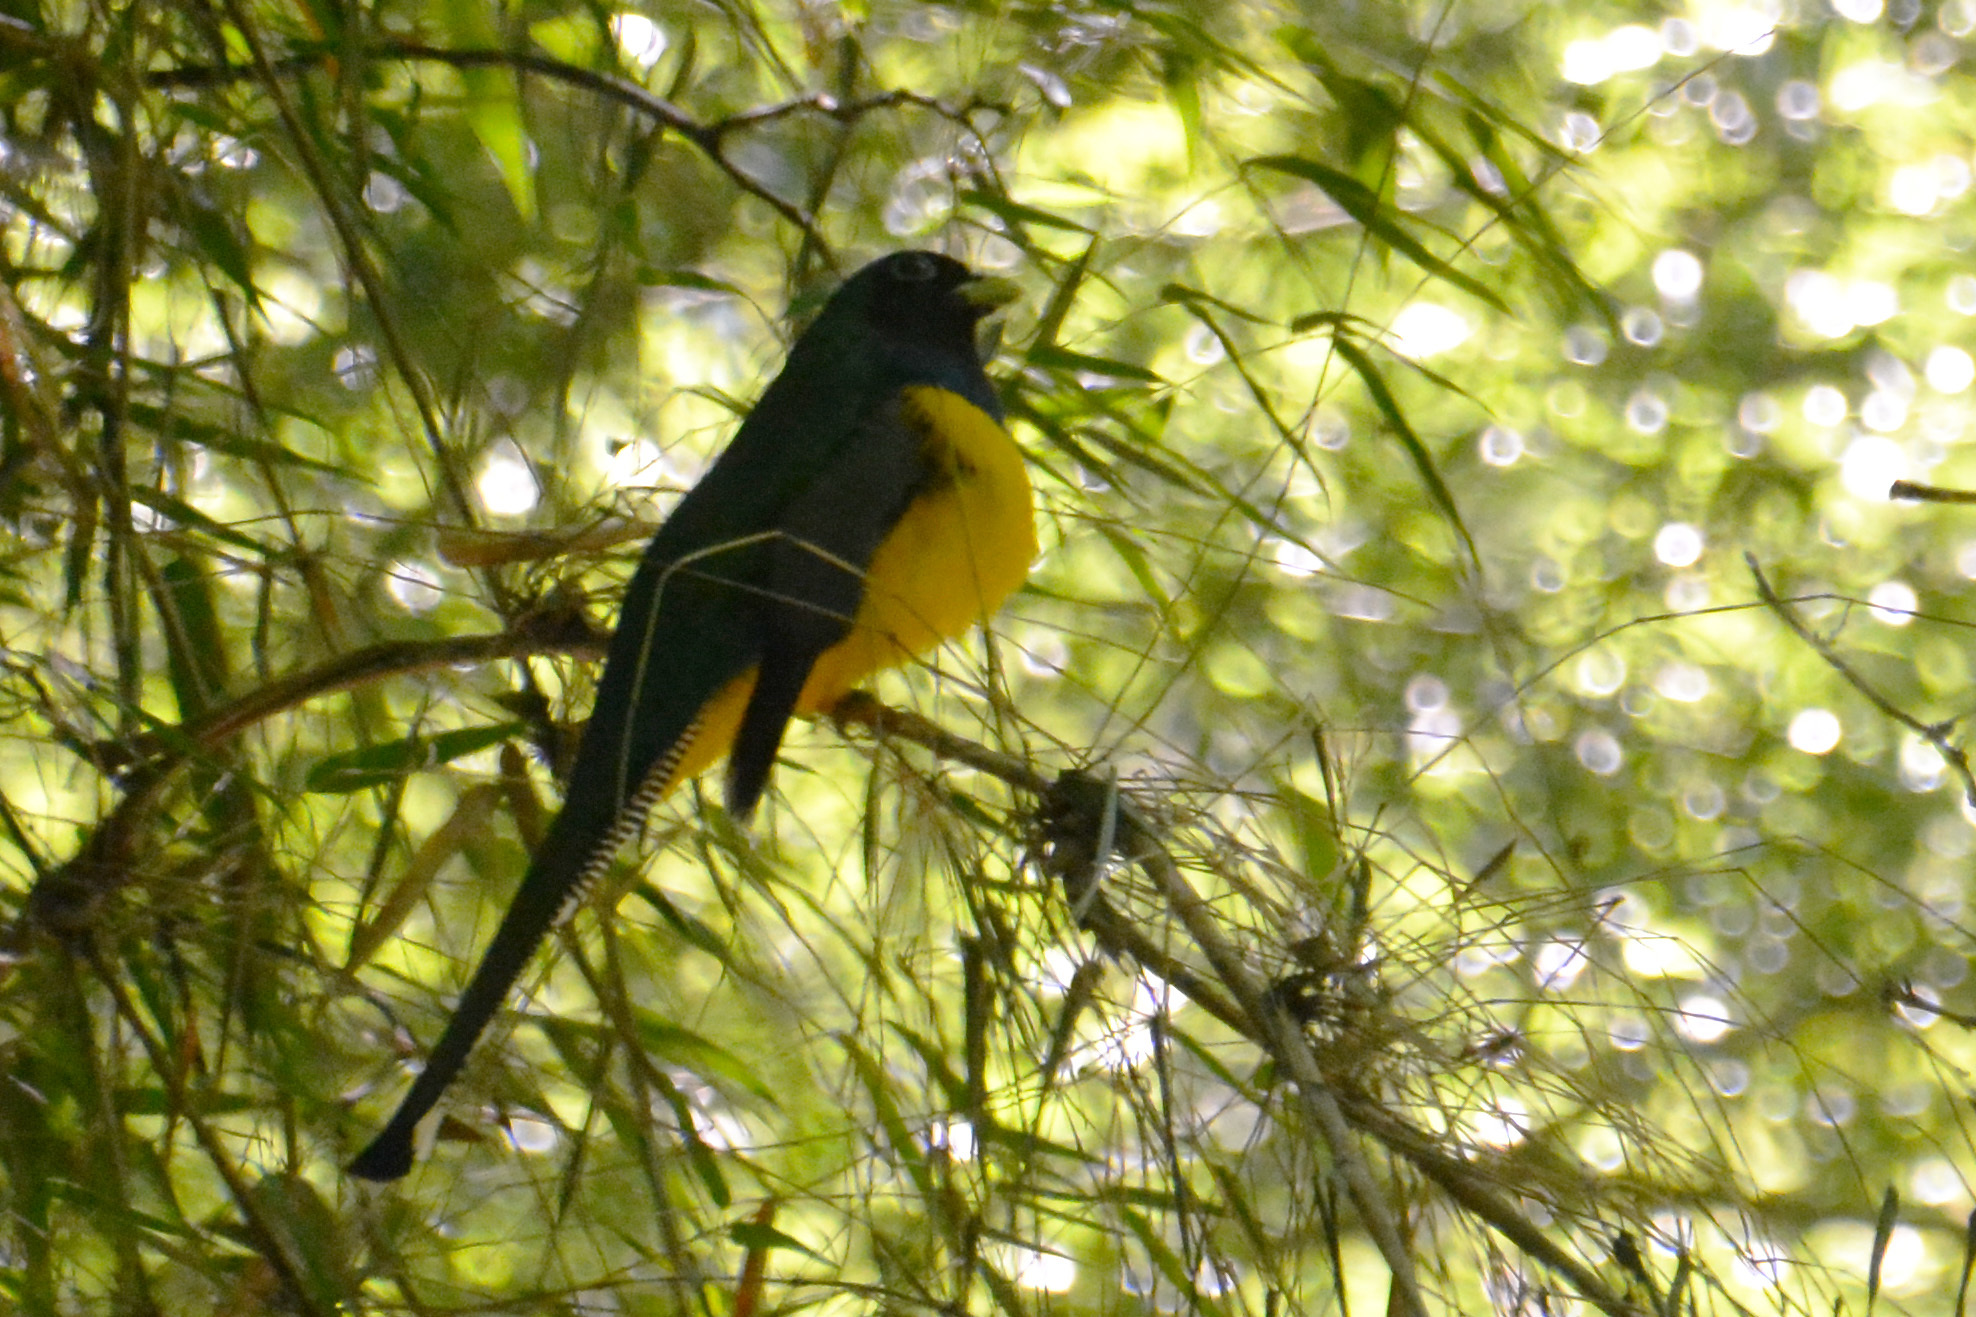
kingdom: Animalia
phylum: Chordata
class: Aves
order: Trogoniformes
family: Trogonidae
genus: Trogon
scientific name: Trogon rufus
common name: Black-throated trogon
